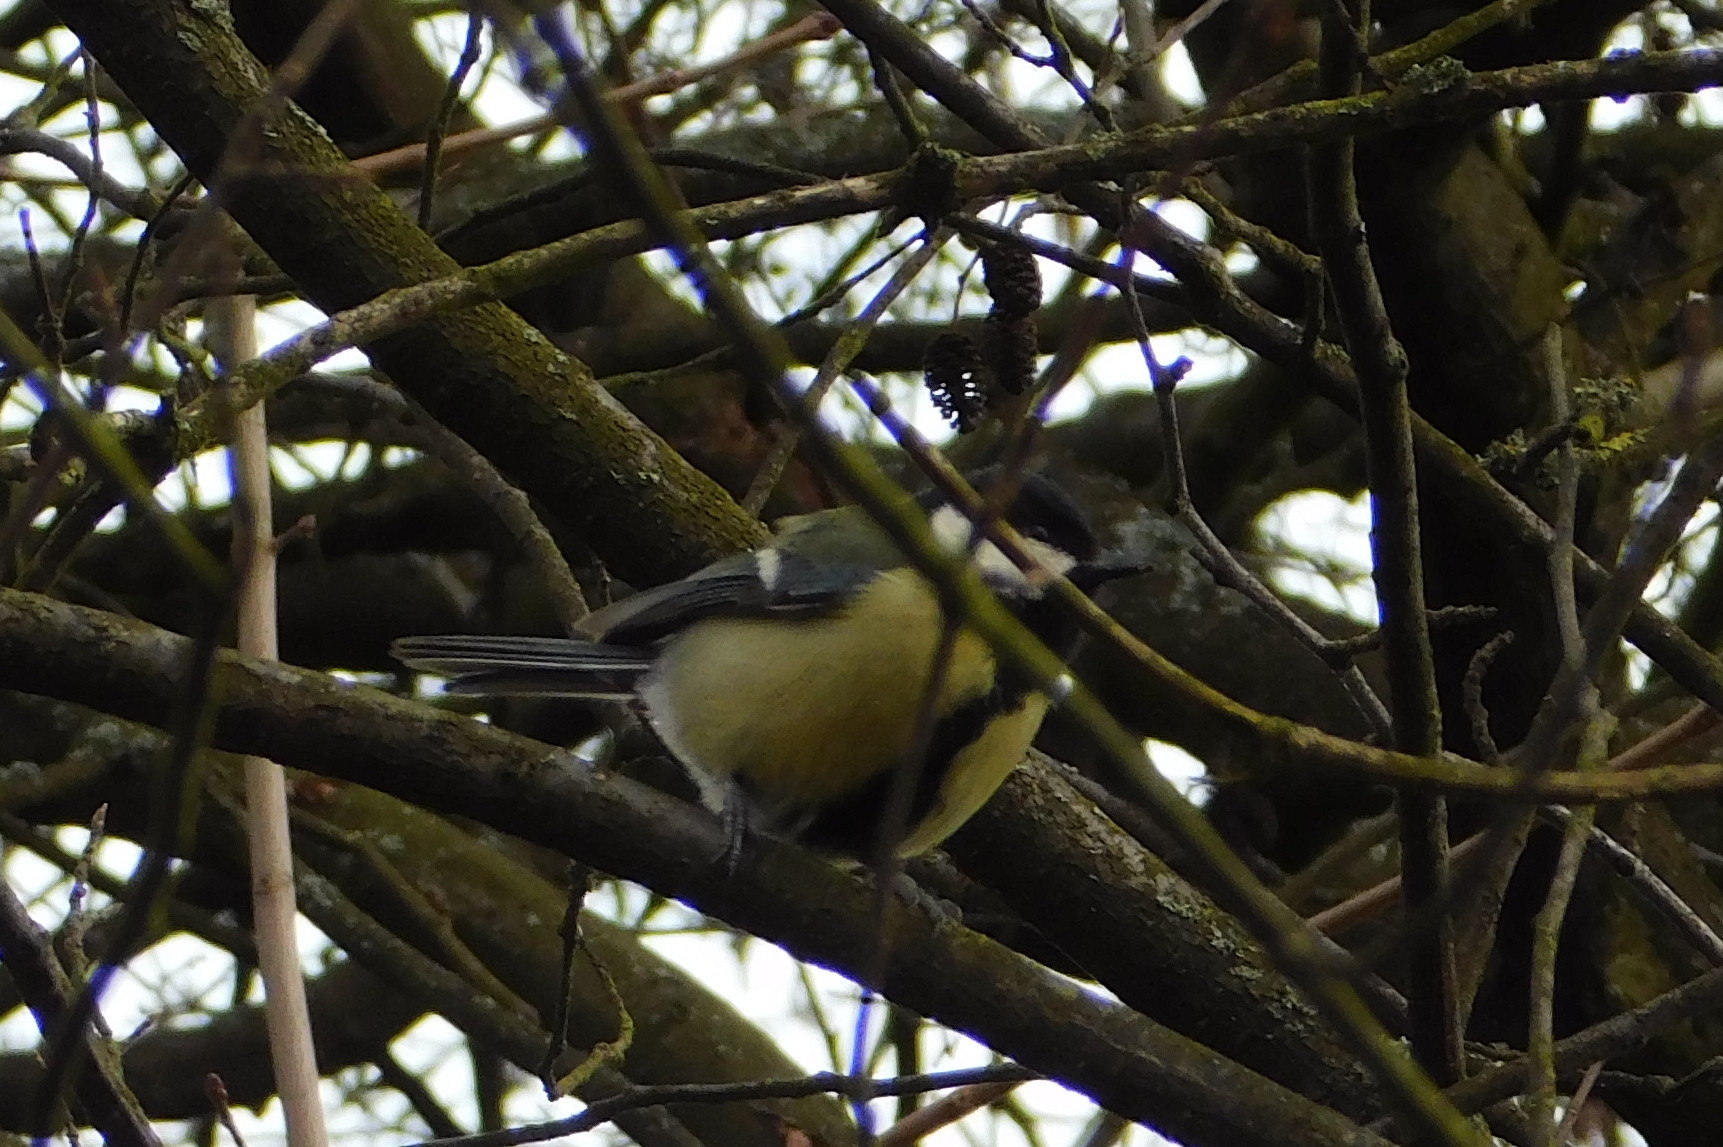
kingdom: Animalia
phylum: Chordata
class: Aves
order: Passeriformes
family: Paridae
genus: Parus
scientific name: Parus major
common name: Great tit
